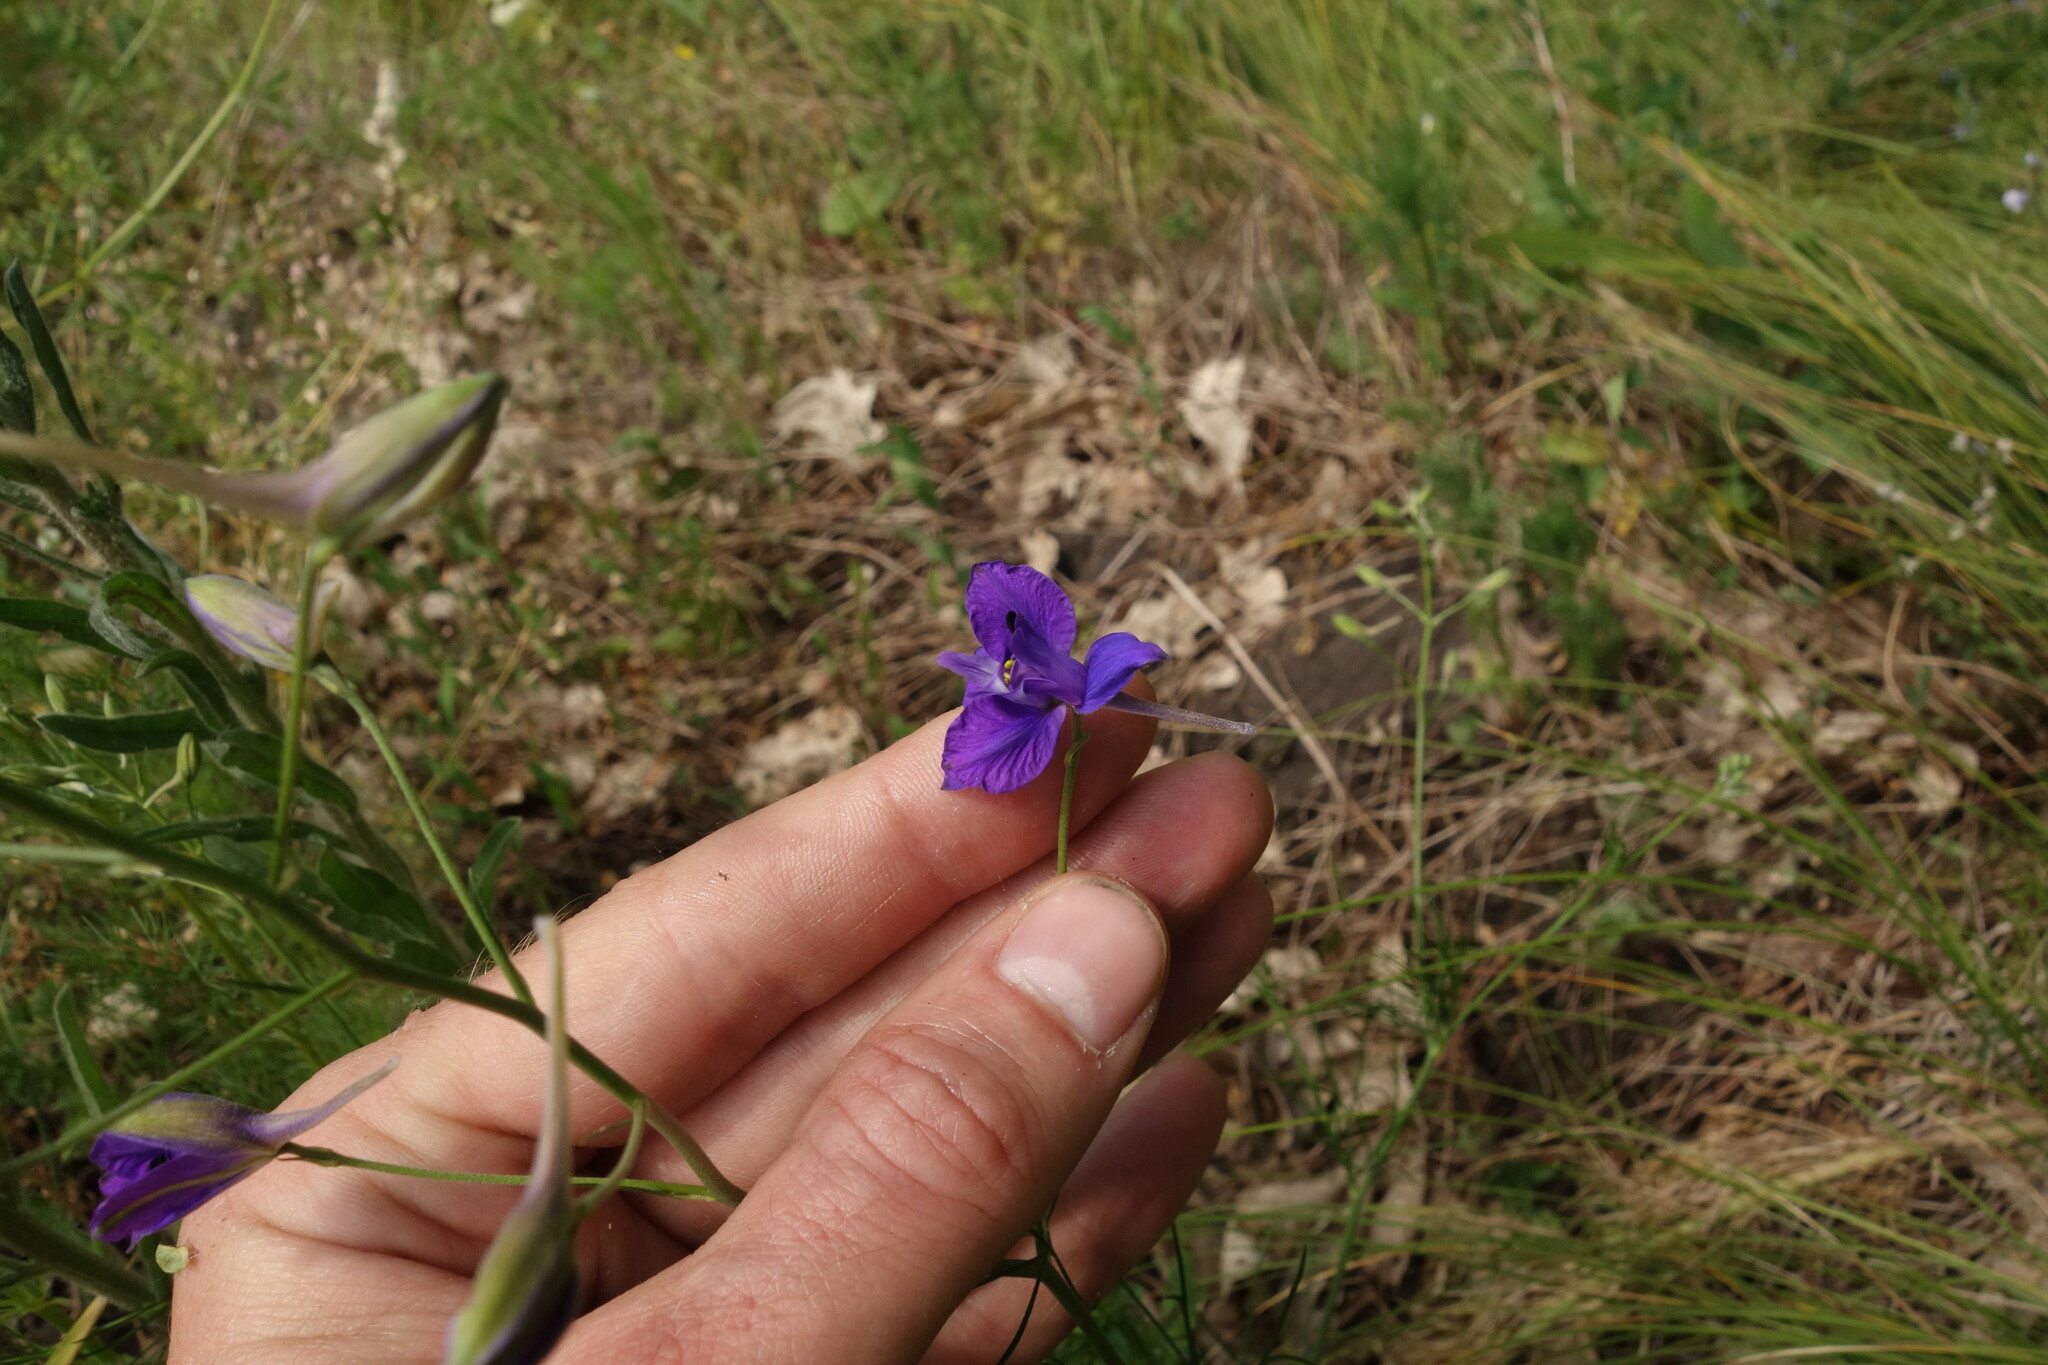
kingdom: Plantae
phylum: Tracheophyta
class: Magnoliopsida
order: Ranunculales
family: Ranunculaceae
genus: Delphinium
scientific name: Delphinium consolida
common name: Branching larkspur
